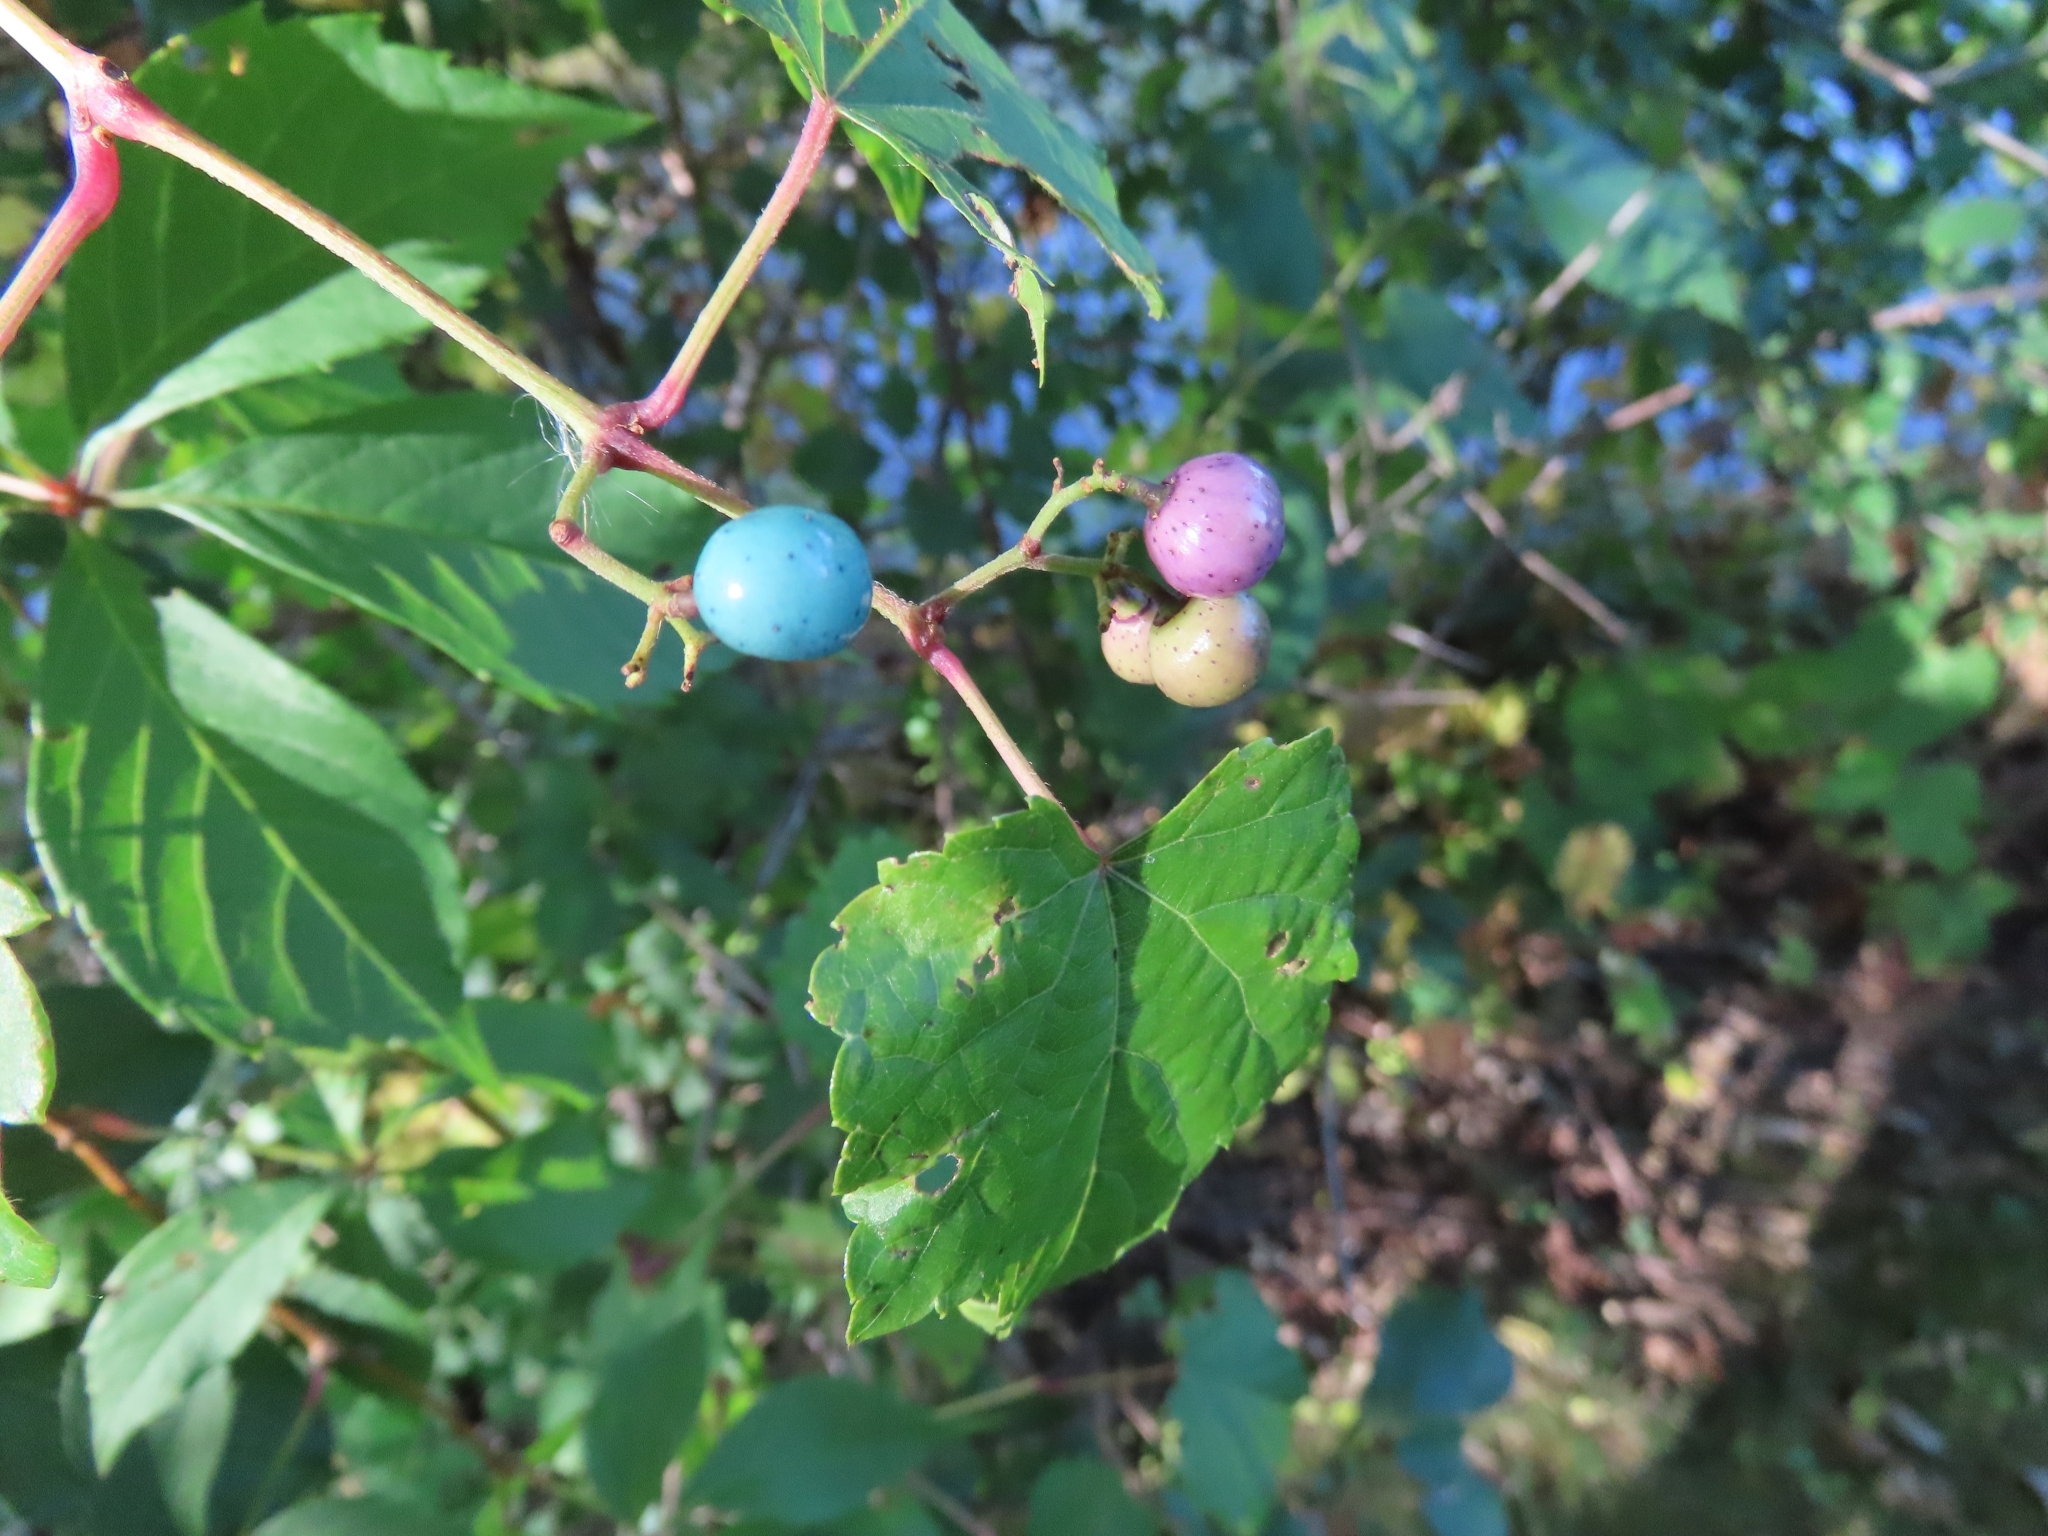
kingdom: Plantae
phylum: Tracheophyta
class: Magnoliopsida
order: Vitales
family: Vitaceae
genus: Ampelopsis
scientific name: Ampelopsis glandulosa
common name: Amur peppervine
